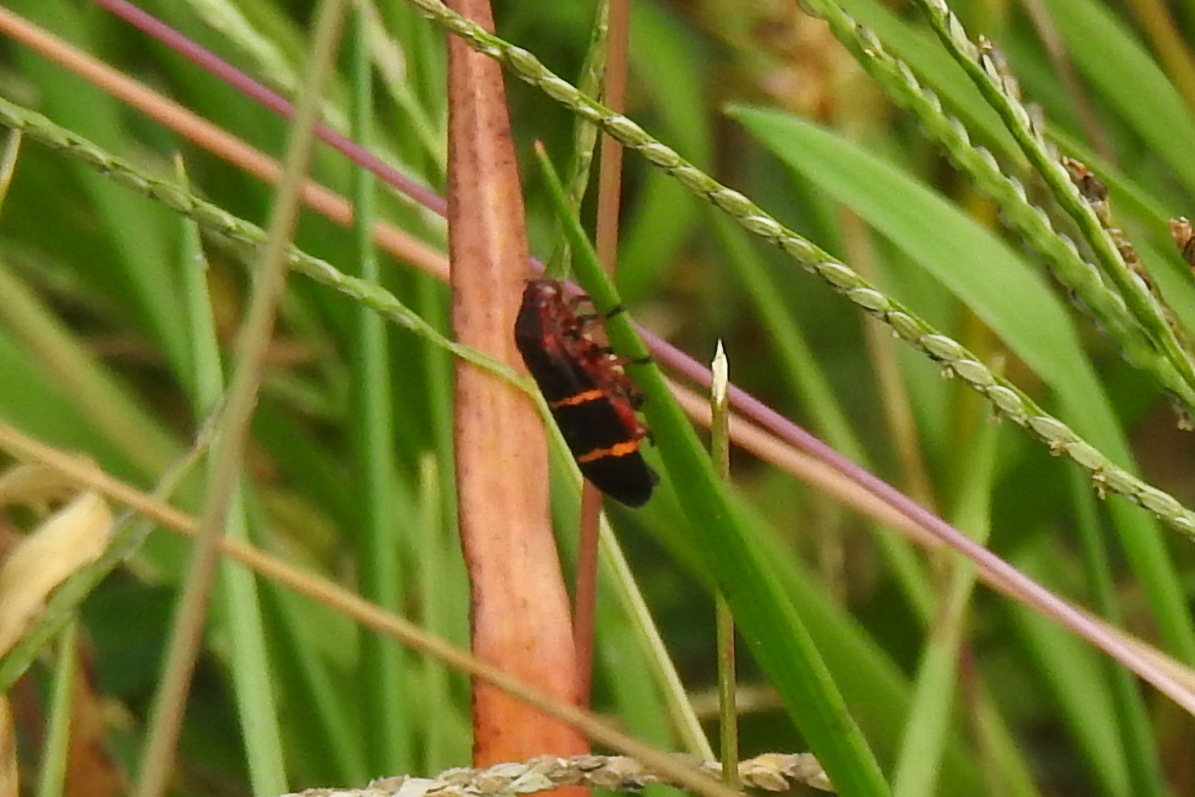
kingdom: Animalia
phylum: Arthropoda
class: Insecta
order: Hemiptera
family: Cercopidae
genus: Prosapia
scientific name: Prosapia bicincta
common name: Twolined spittlebug
